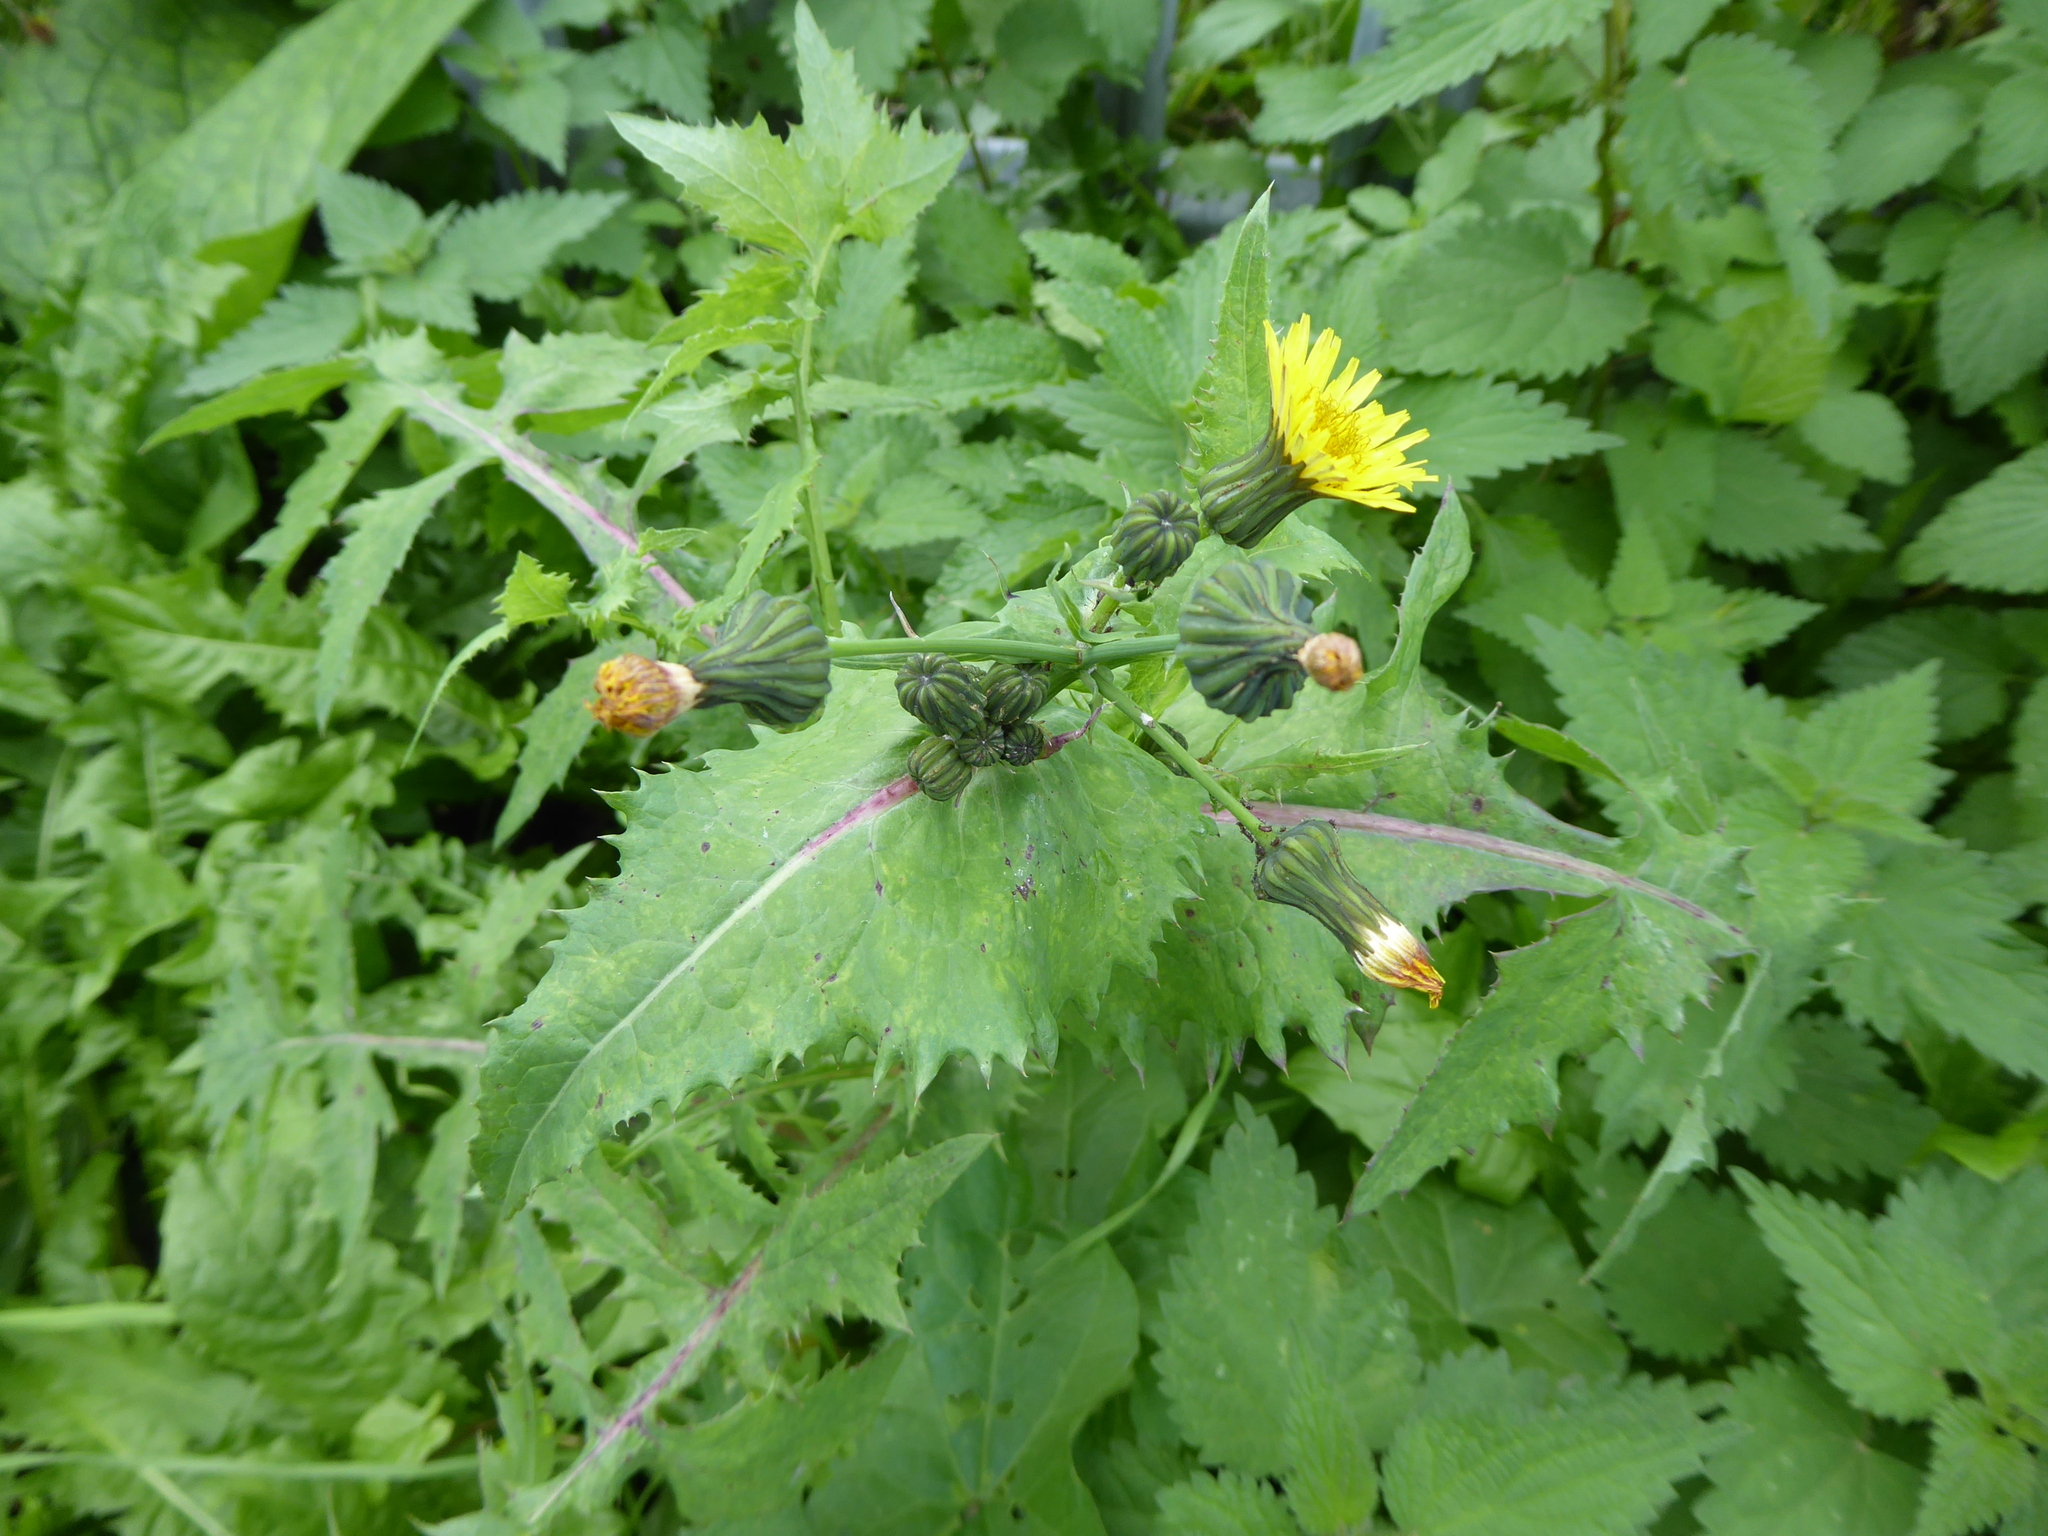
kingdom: Plantae
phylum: Tracheophyta
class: Magnoliopsida
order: Asterales
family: Asteraceae
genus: Sonchus
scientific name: Sonchus oleraceus
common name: Common sowthistle
